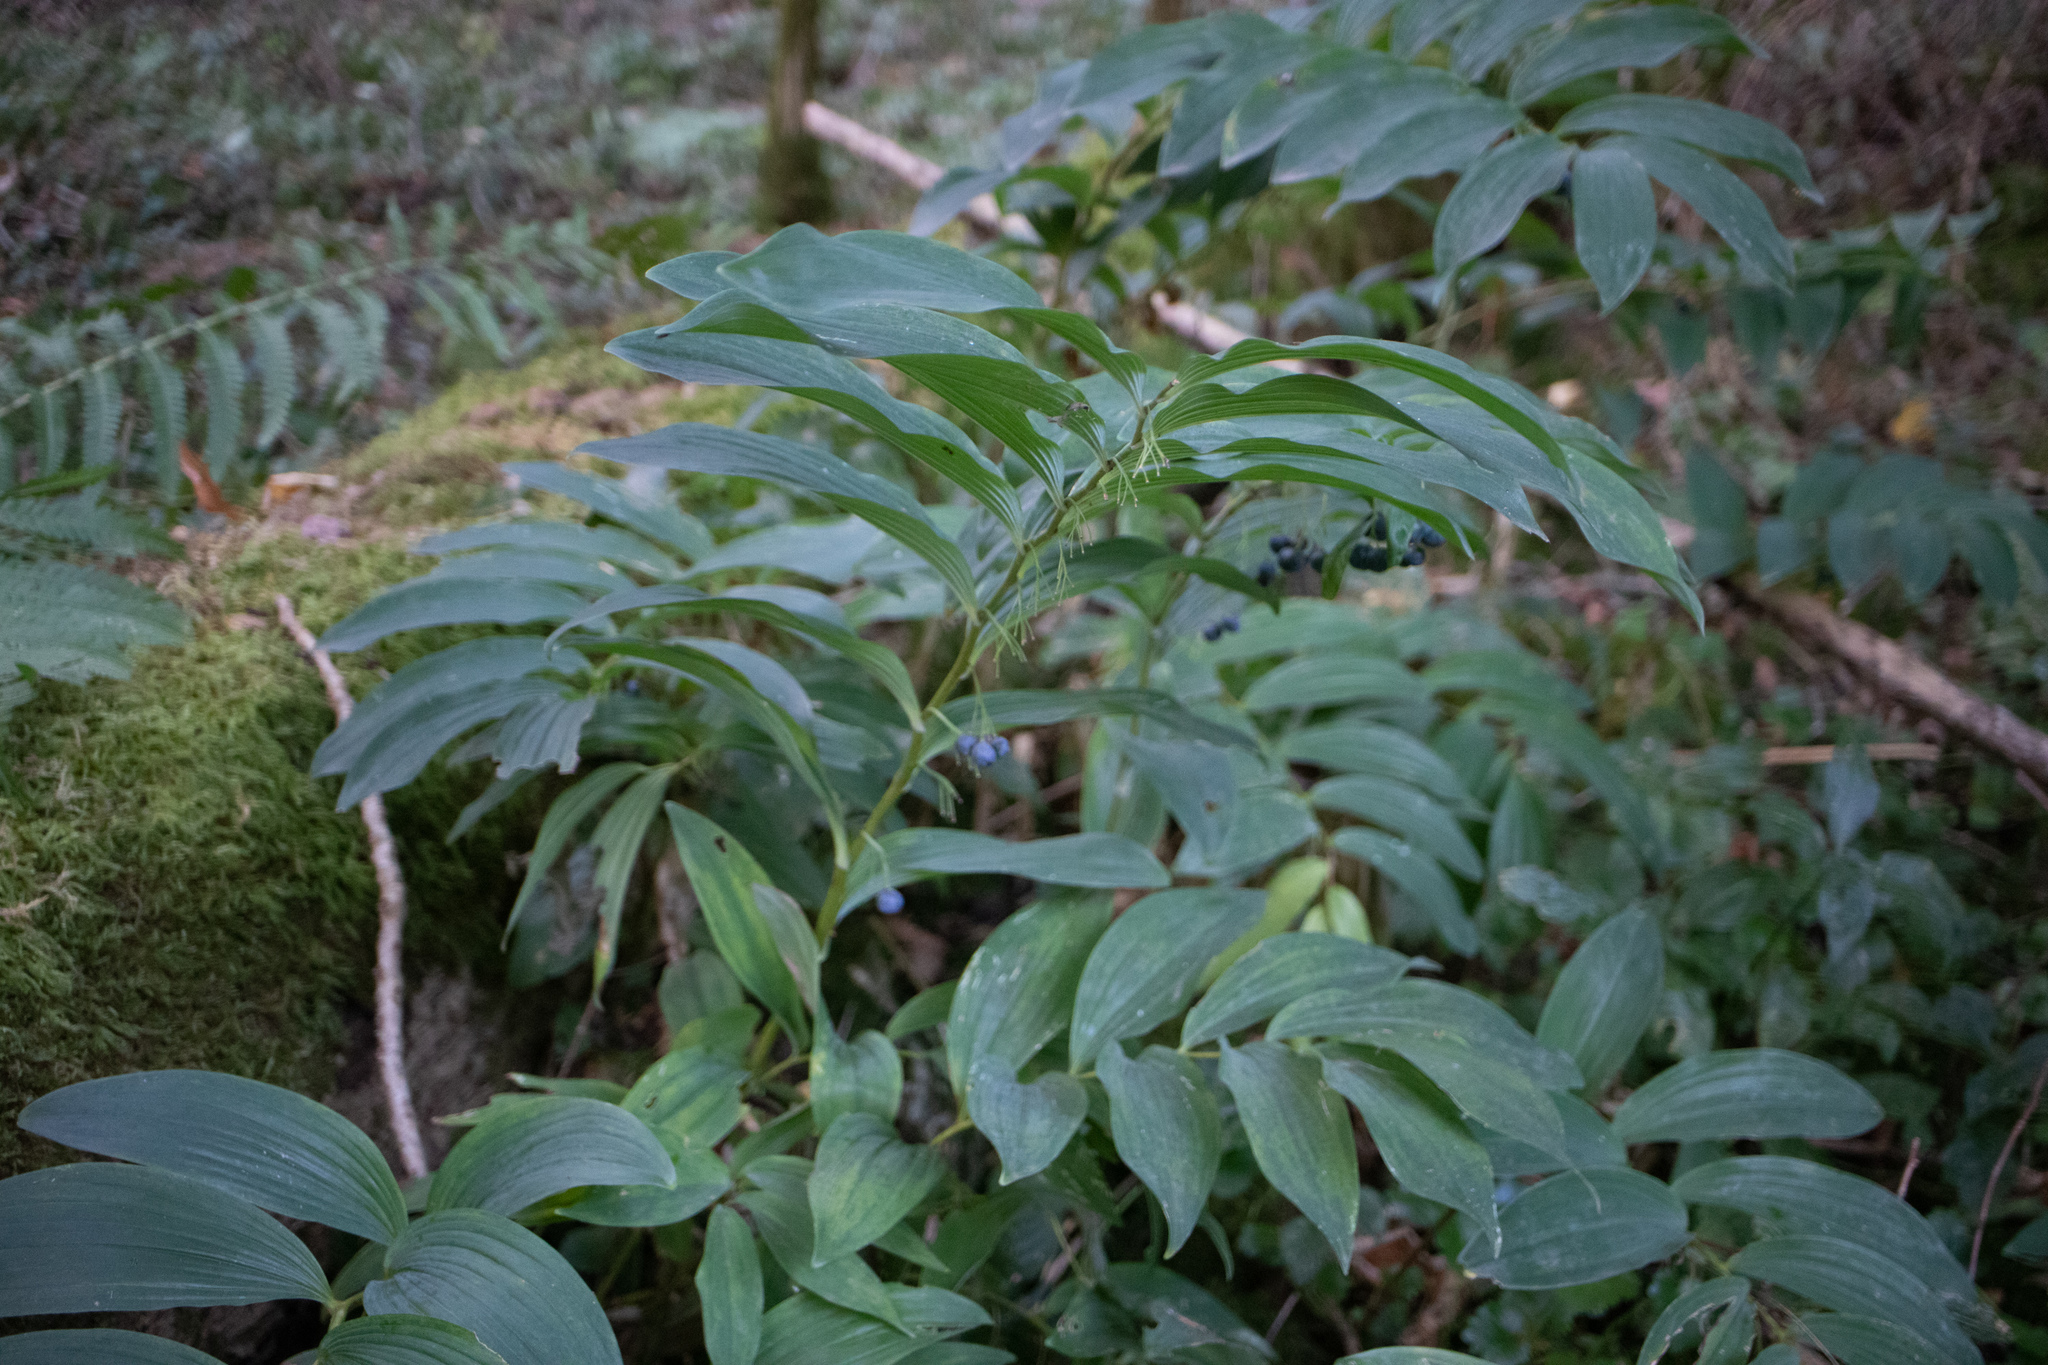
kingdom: Plantae
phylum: Tracheophyta
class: Liliopsida
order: Asparagales
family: Asparagaceae
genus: Polygonatum
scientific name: Polygonatum multiflorum
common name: Solomon's-seal
